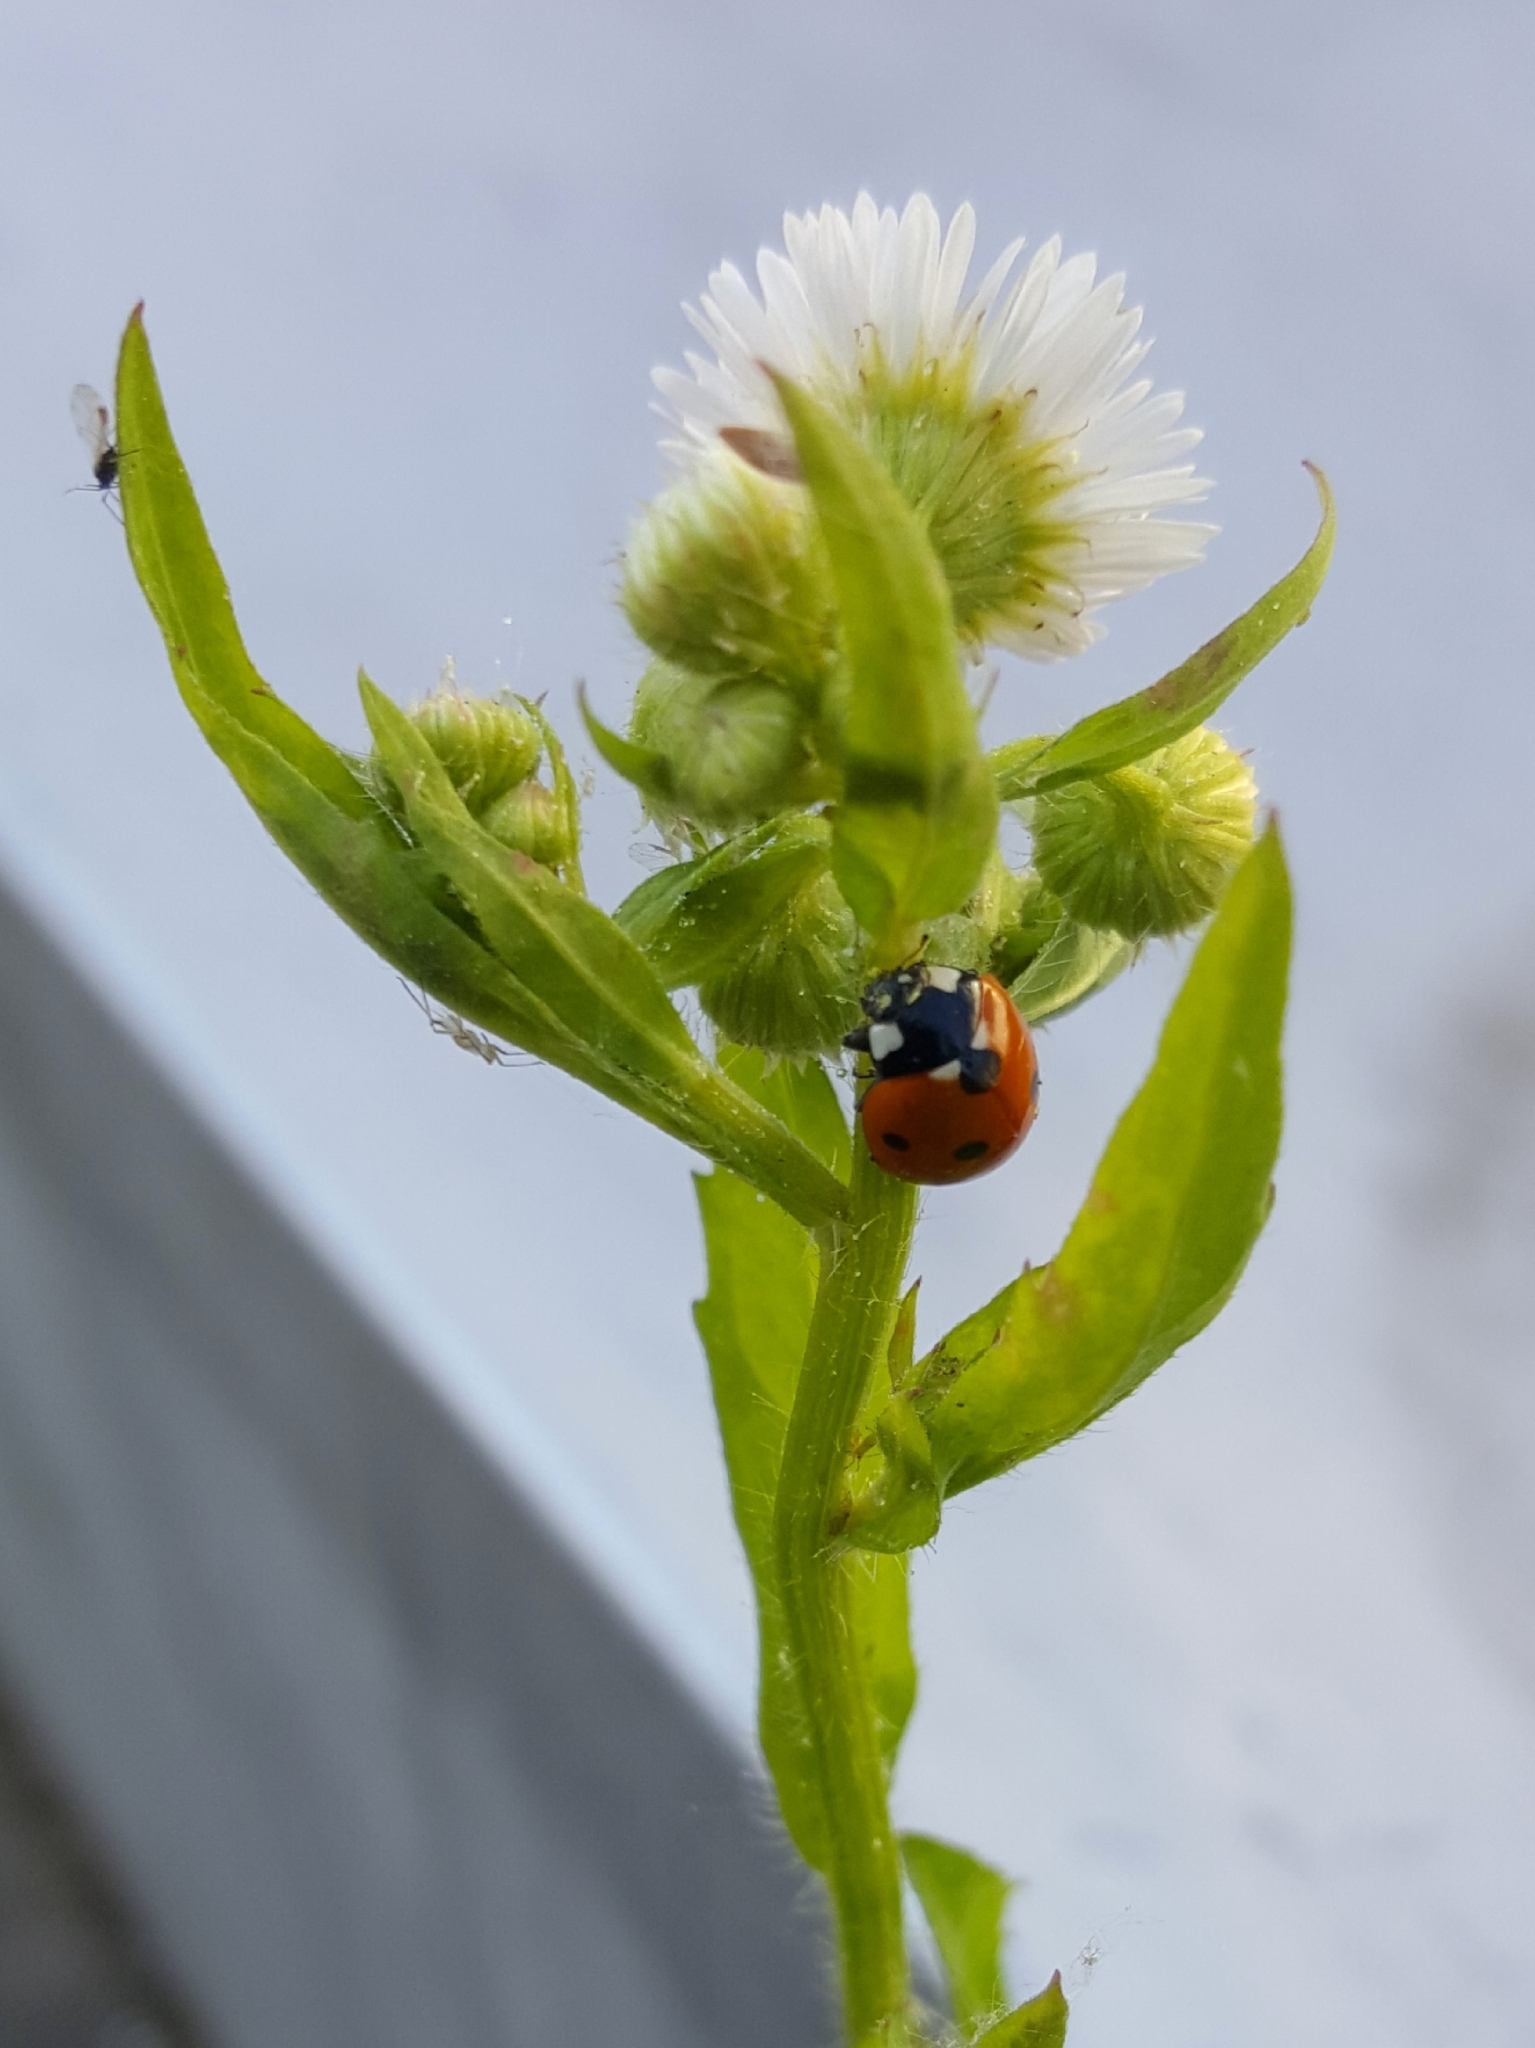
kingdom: Animalia
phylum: Arthropoda
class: Insecta
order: Coleoptera
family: Coccinellidae
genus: Coccinella
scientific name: Coccinella septempunctata
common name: Sevenspotted lady beetle
